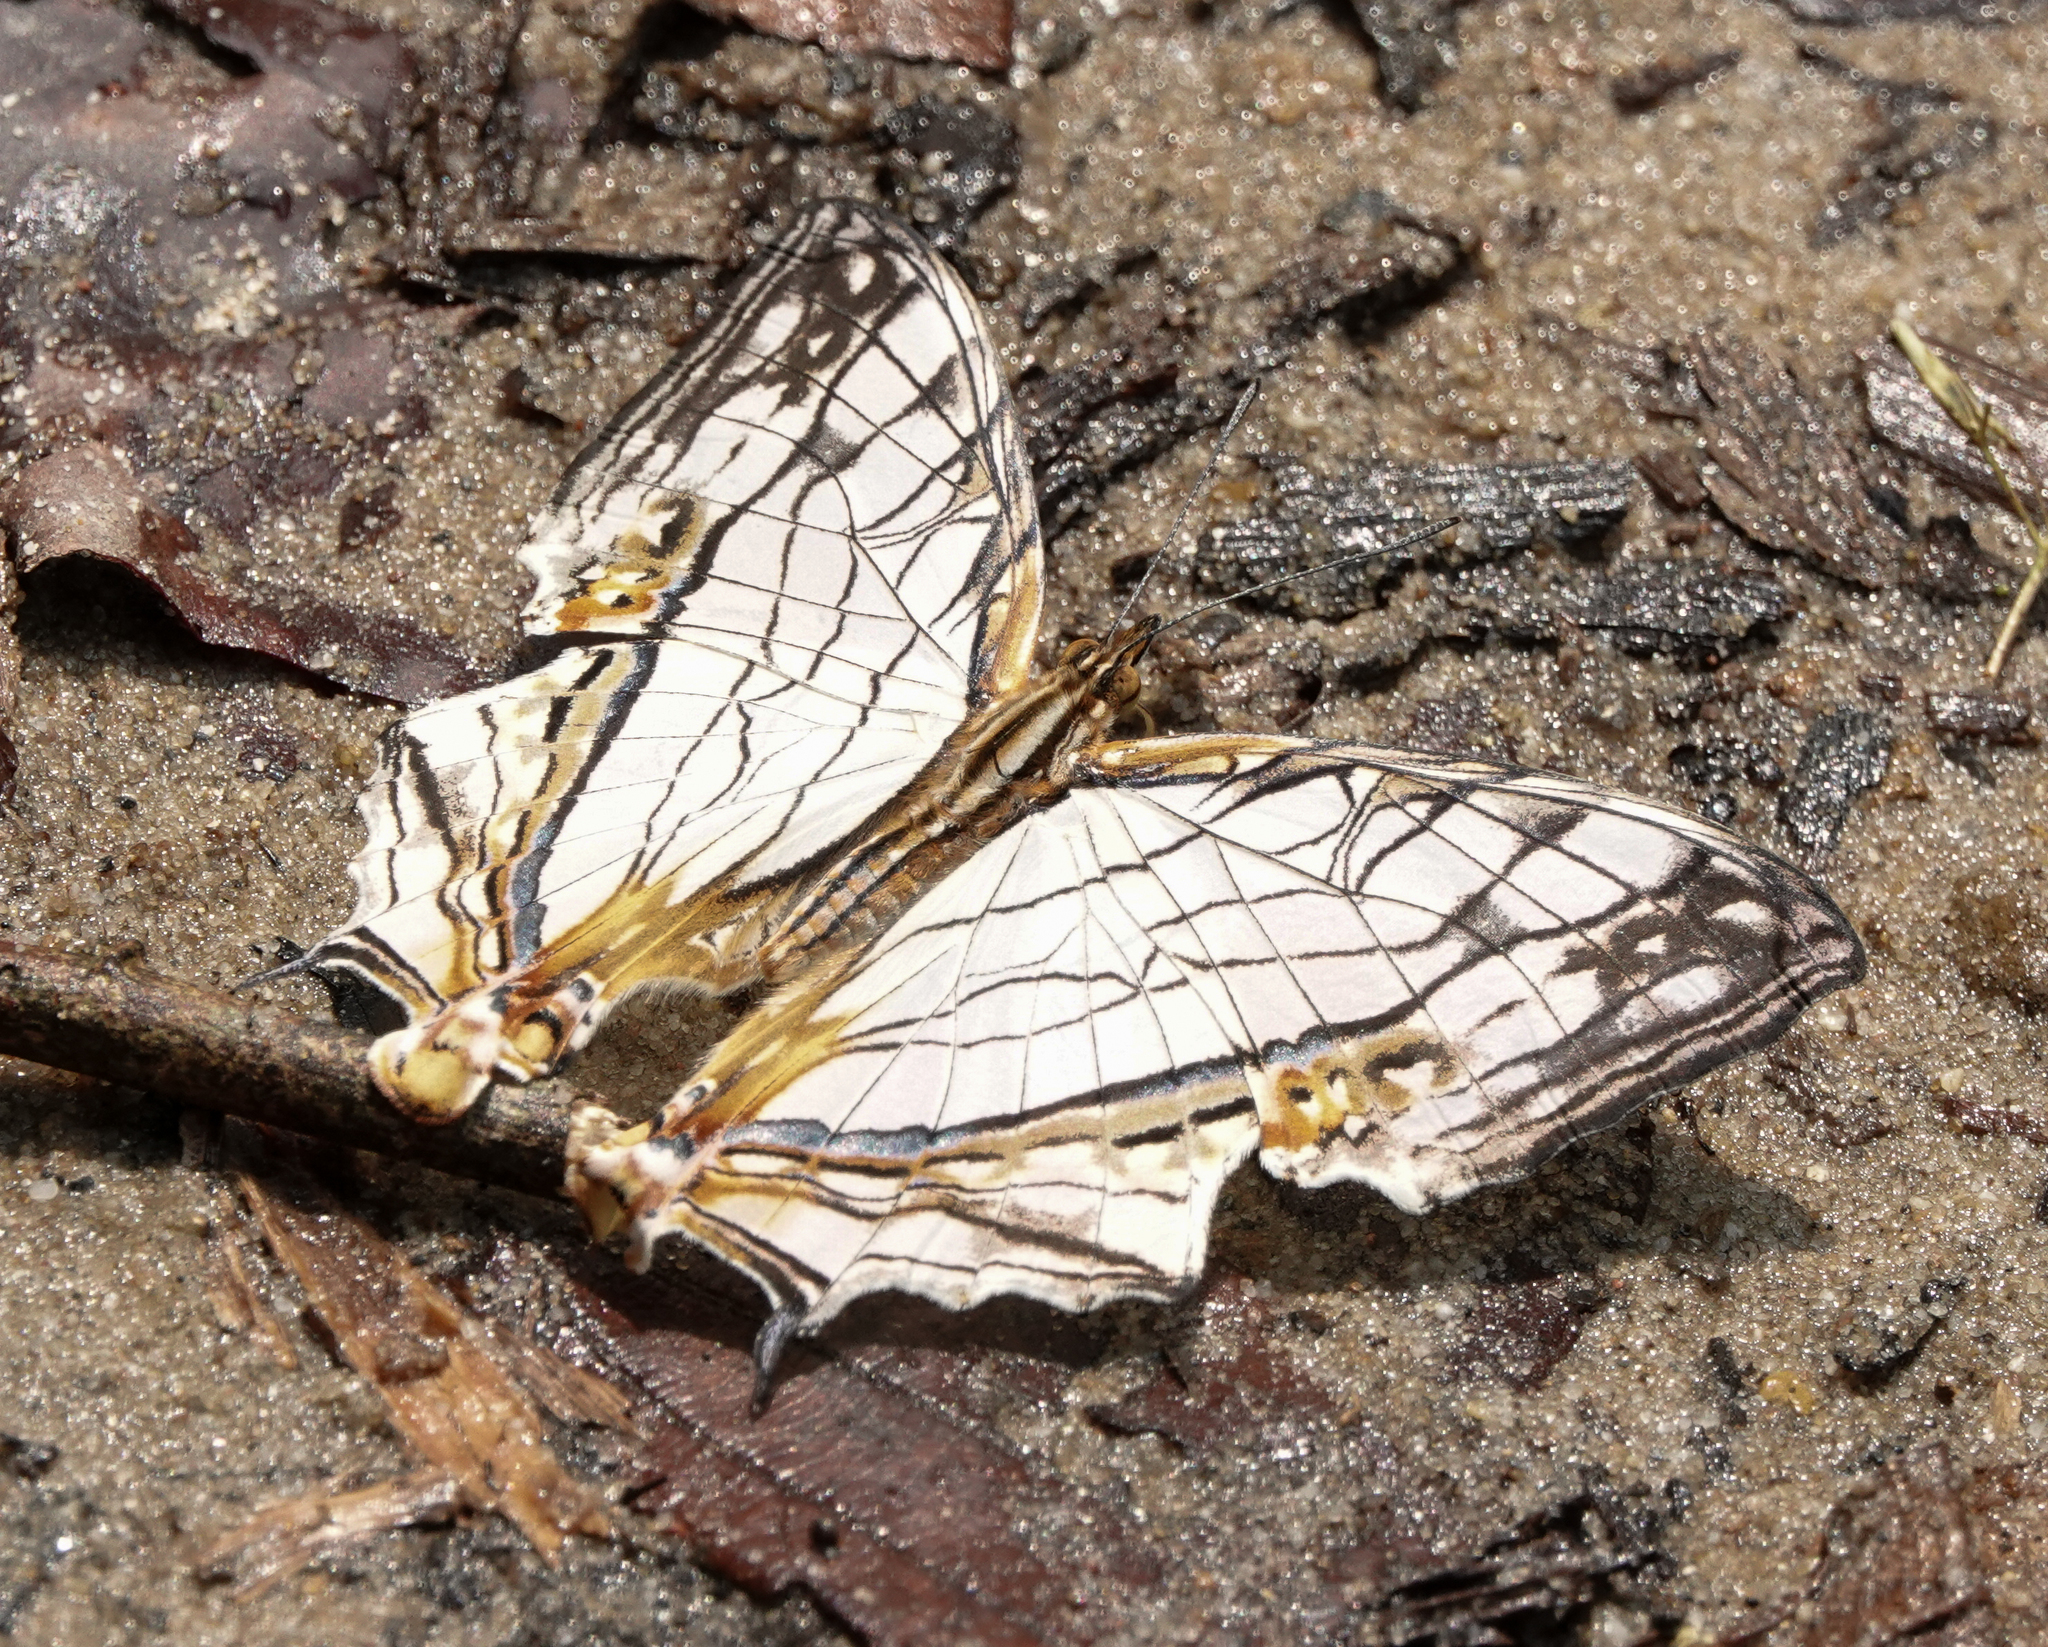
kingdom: Animalia
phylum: Arthropoda
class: Insecta
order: Lepidoptera
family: Nymphalidae
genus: Cyrestis
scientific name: Cyrestis thyodamas
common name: Common mapwing
